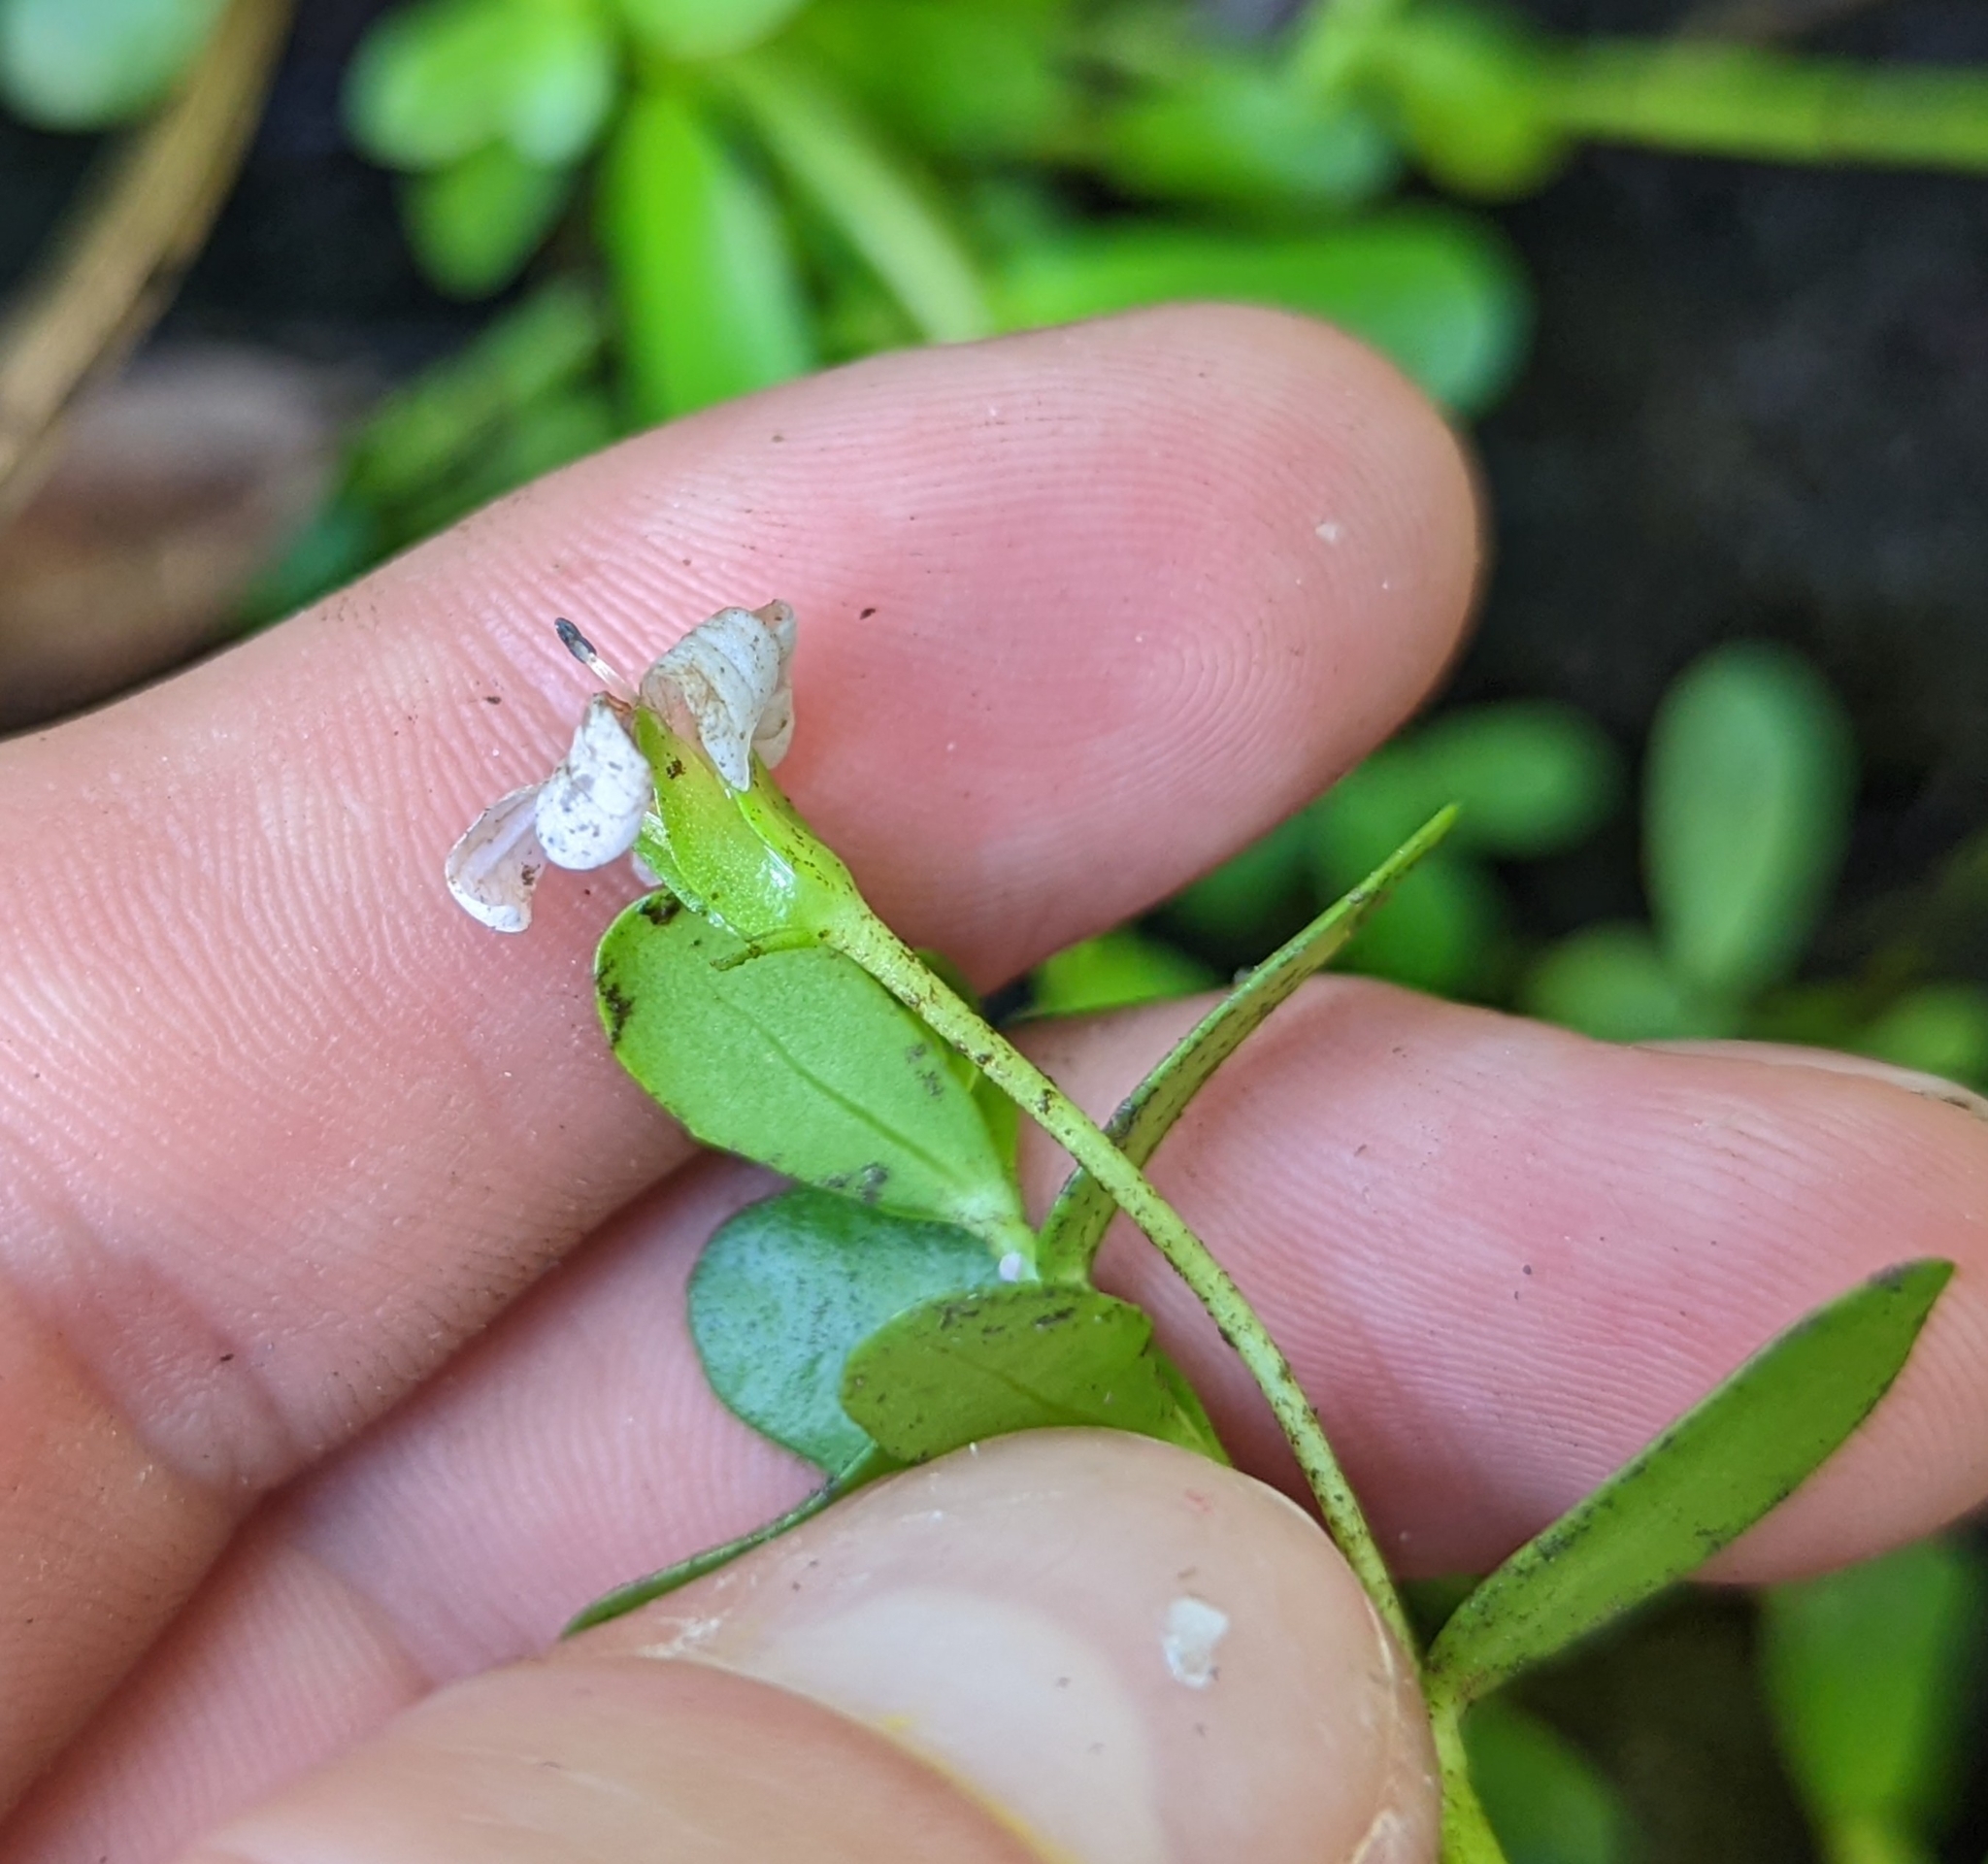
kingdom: Plantae
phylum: Tracheophyta
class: Magnoliopsida
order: Lamiales
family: Plantaginaceae
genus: Bacopa
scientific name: Bacopa monnieri
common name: Indian-pennywort
